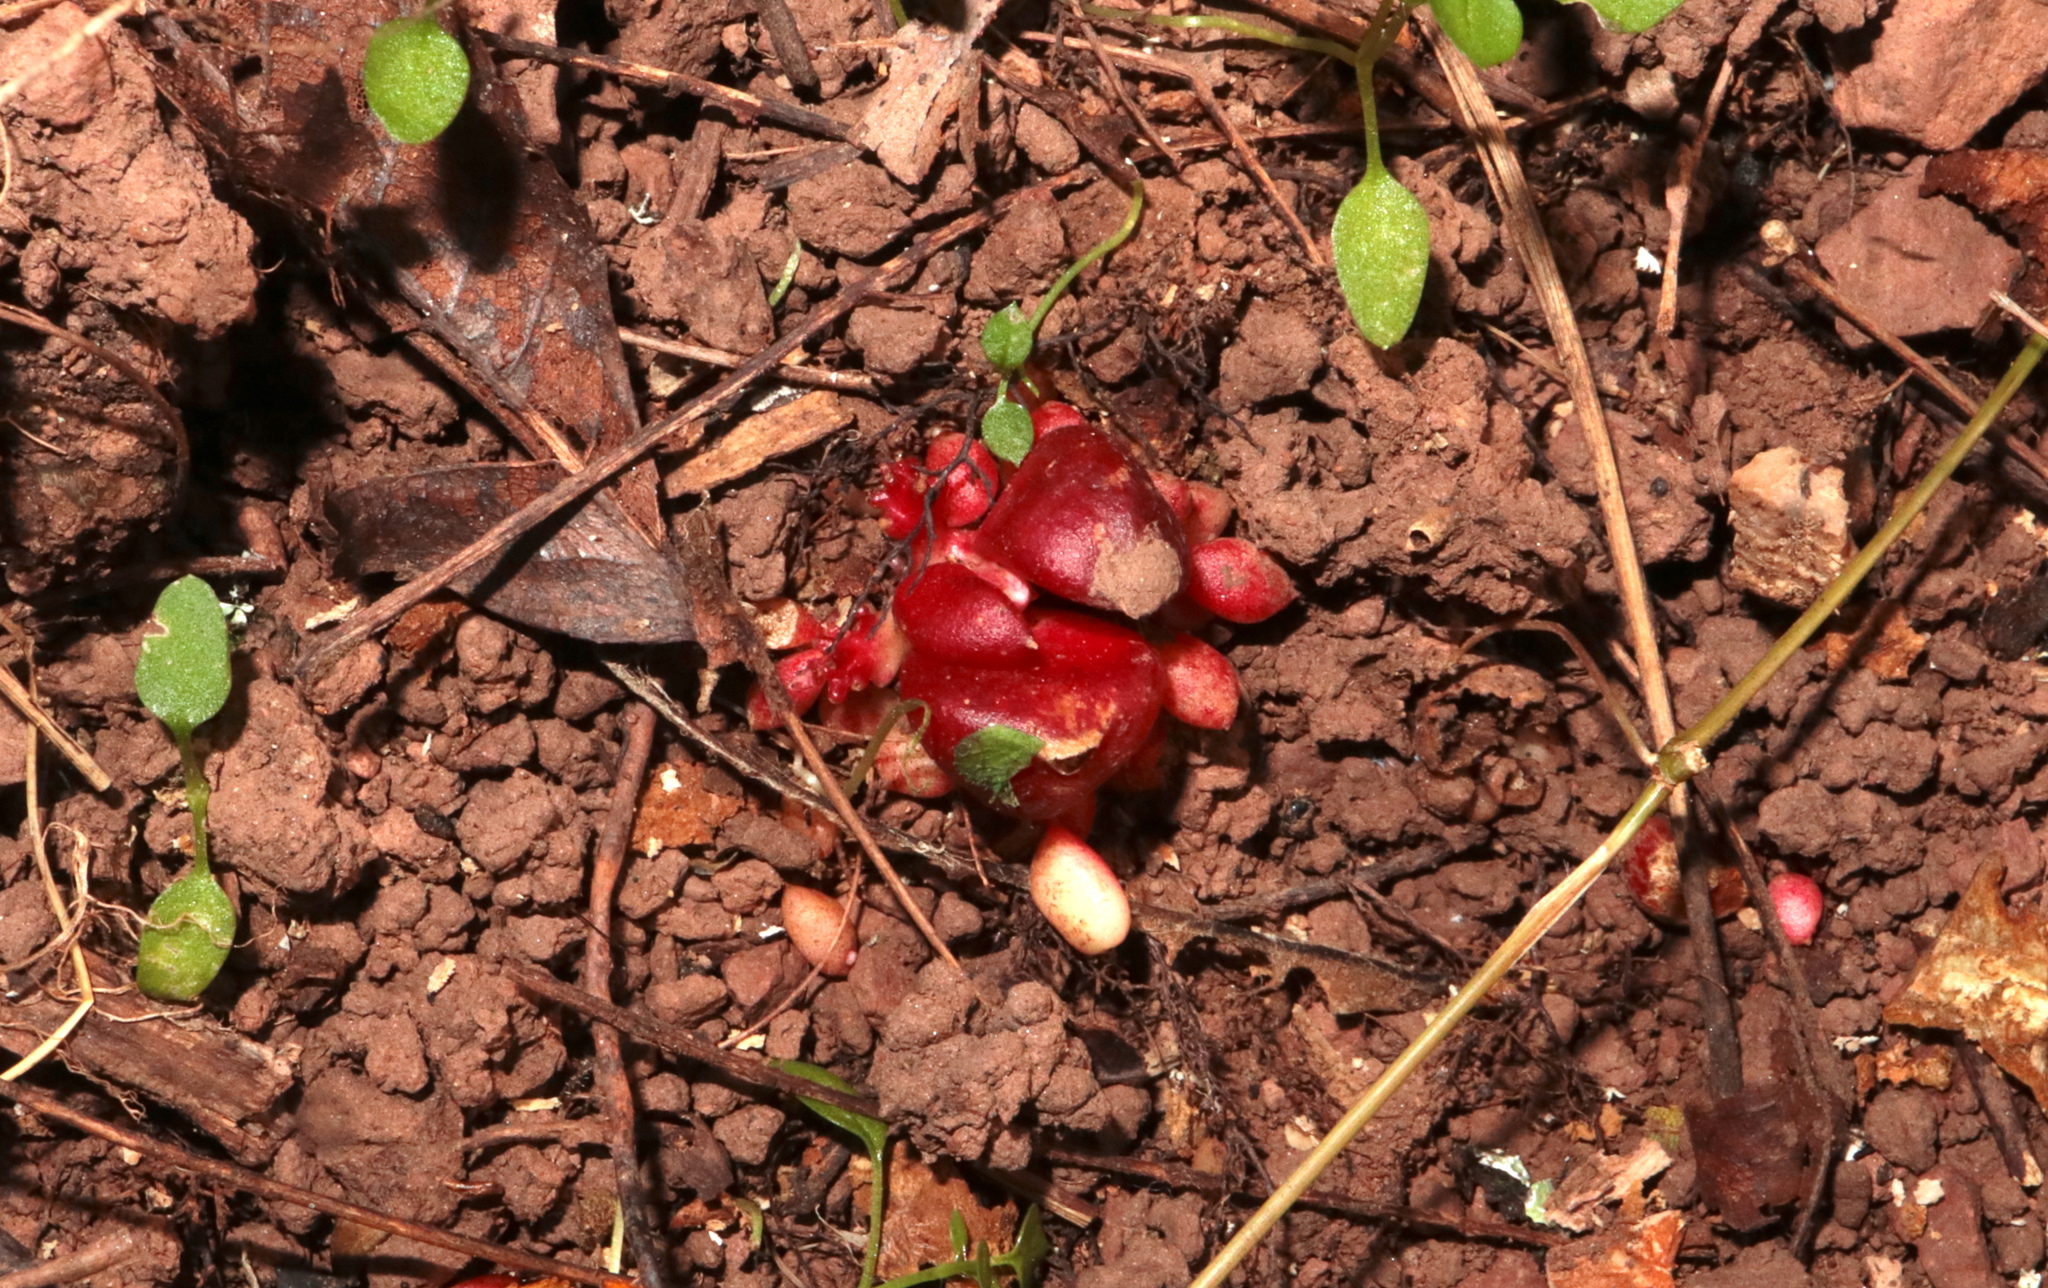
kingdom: Plantae
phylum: Tracheophyta
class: Magnoliopsida
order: Ranunculales
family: Papaveraceae
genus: Dicentra
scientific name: Dicentra cucullaria
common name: Dutchman's breeches
